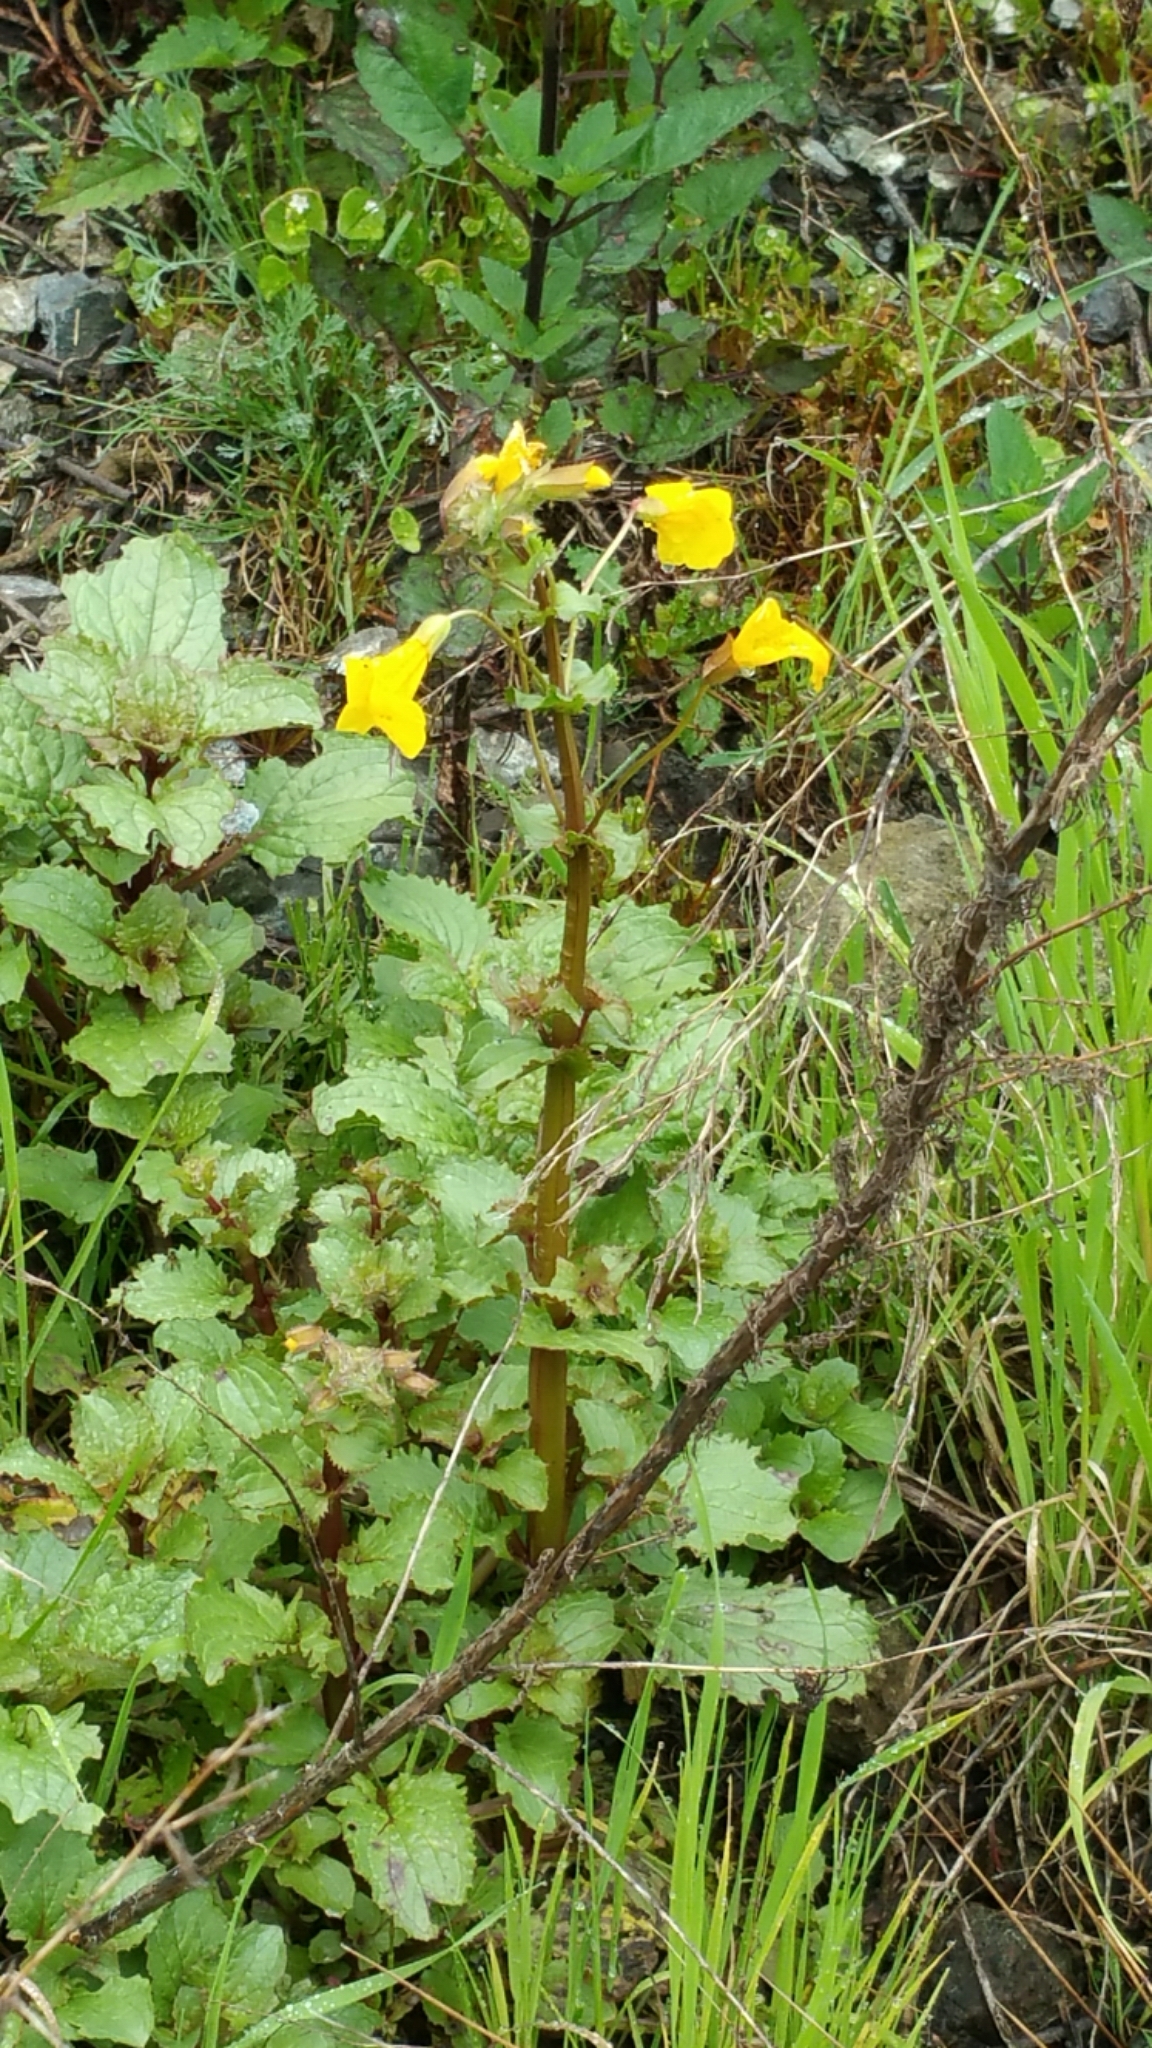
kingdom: Plantae
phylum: Tracheophyta
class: Magnoliopsida
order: Lamiales
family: Phrymaceae
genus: Erythranthe
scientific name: Erythranthe guttata
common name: Monkeyflower
